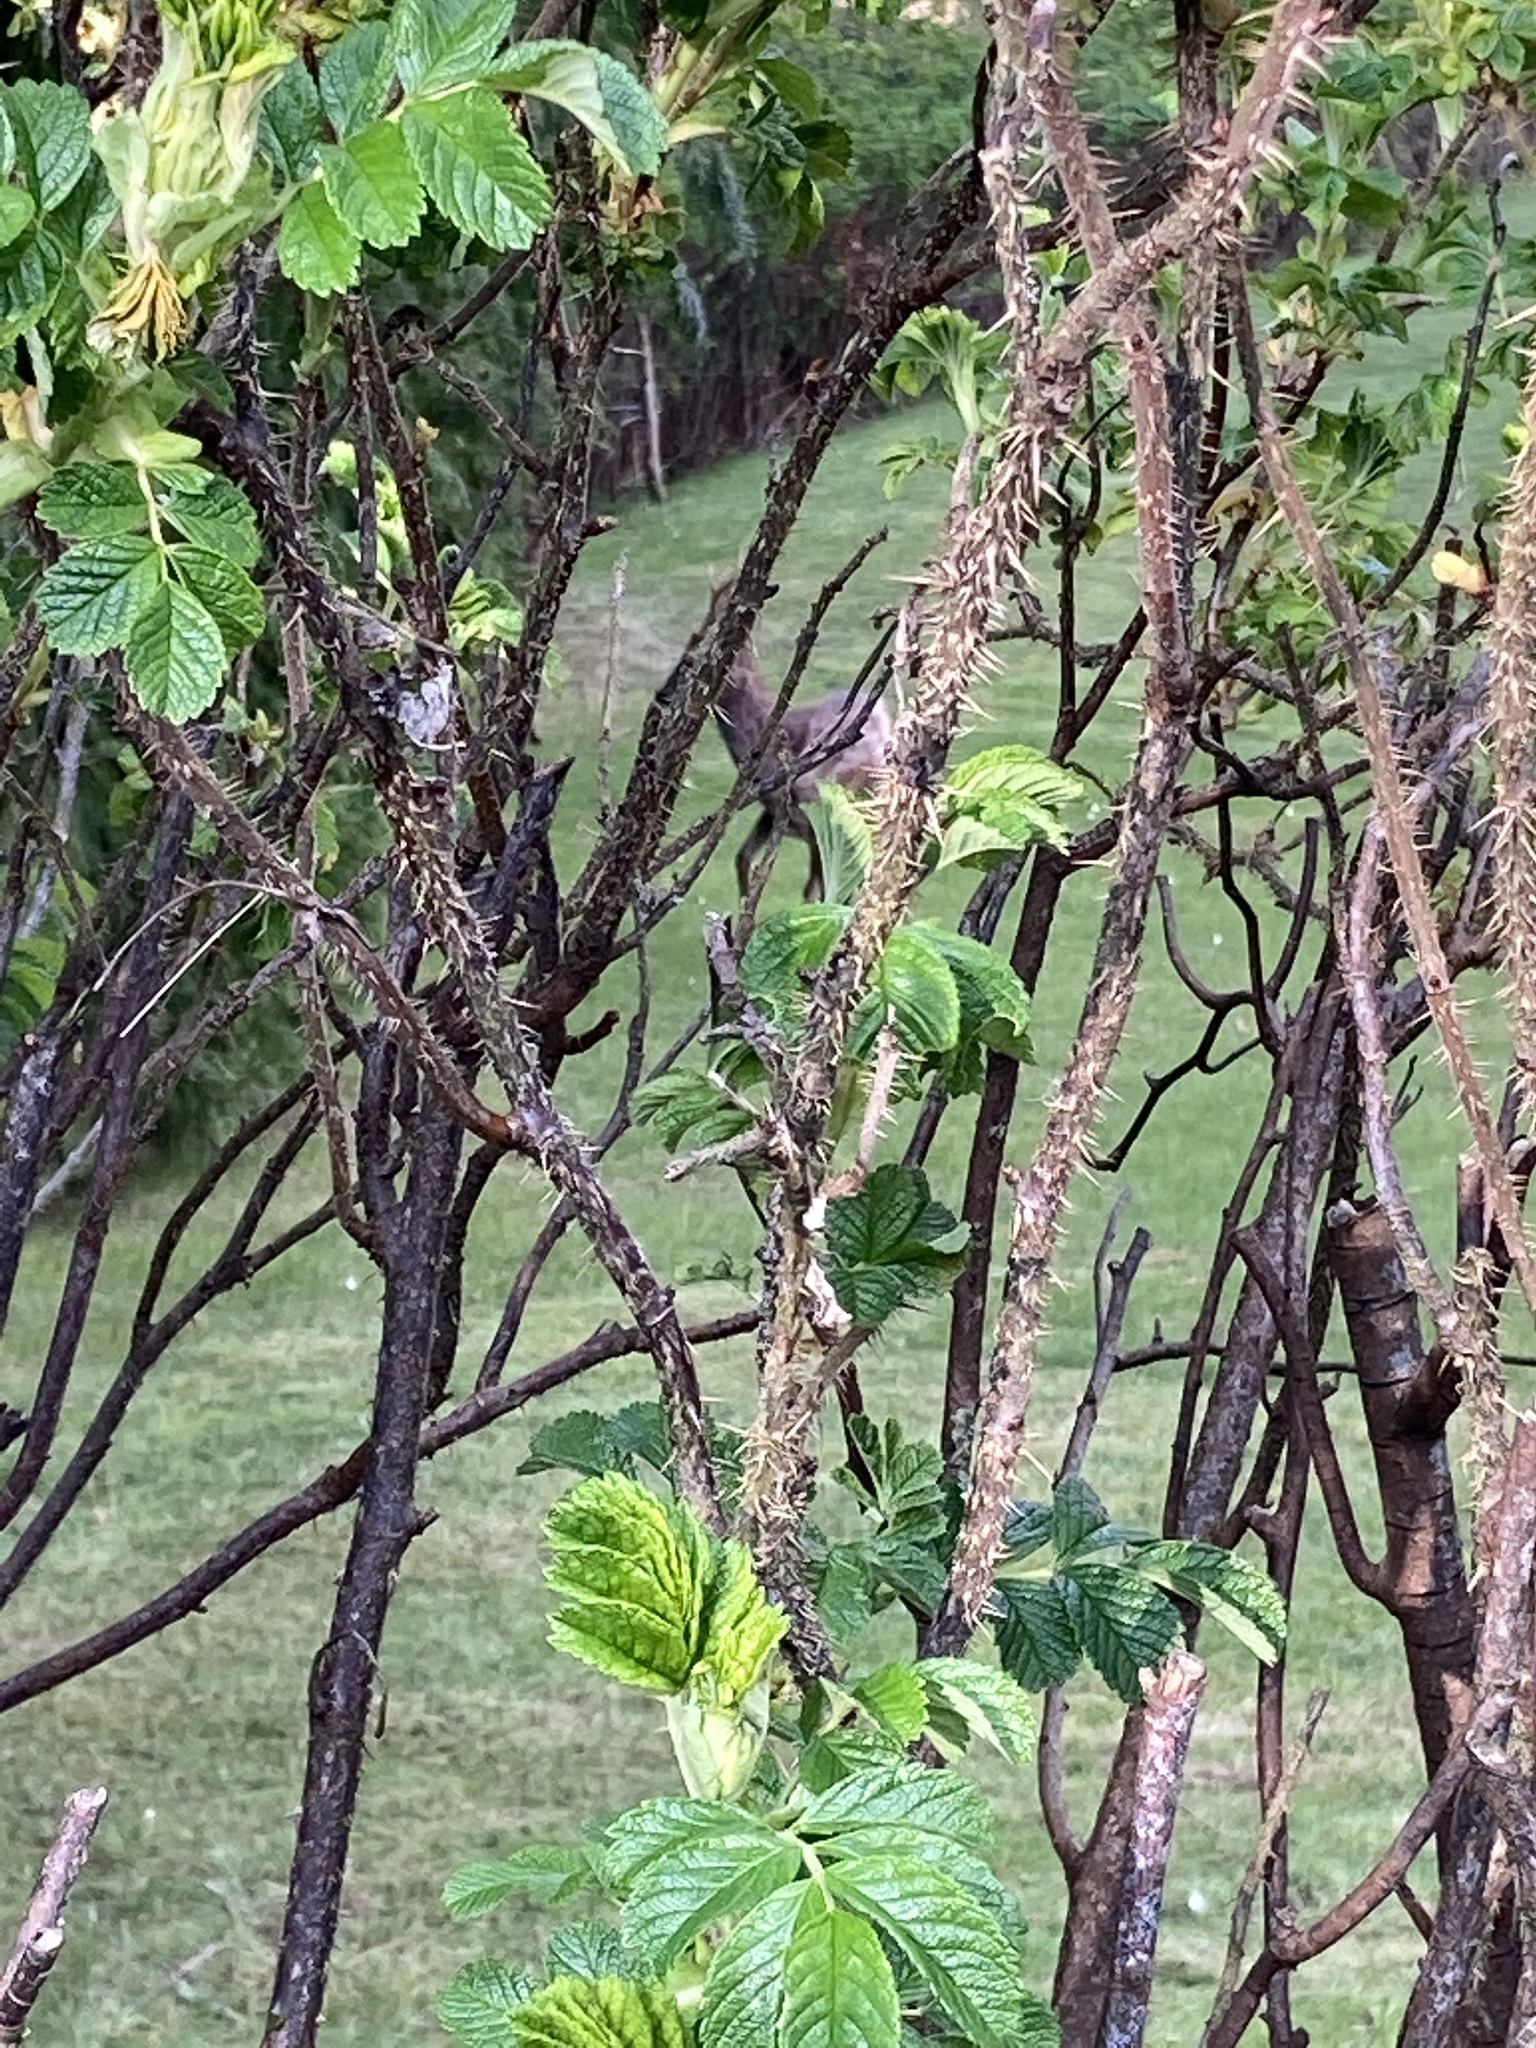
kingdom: Animalia
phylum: Chordata
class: Mammalia
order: Artiodactyla
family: Cervidae
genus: Capreolus
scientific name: Capreolus capreolus
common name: Western roe deer
